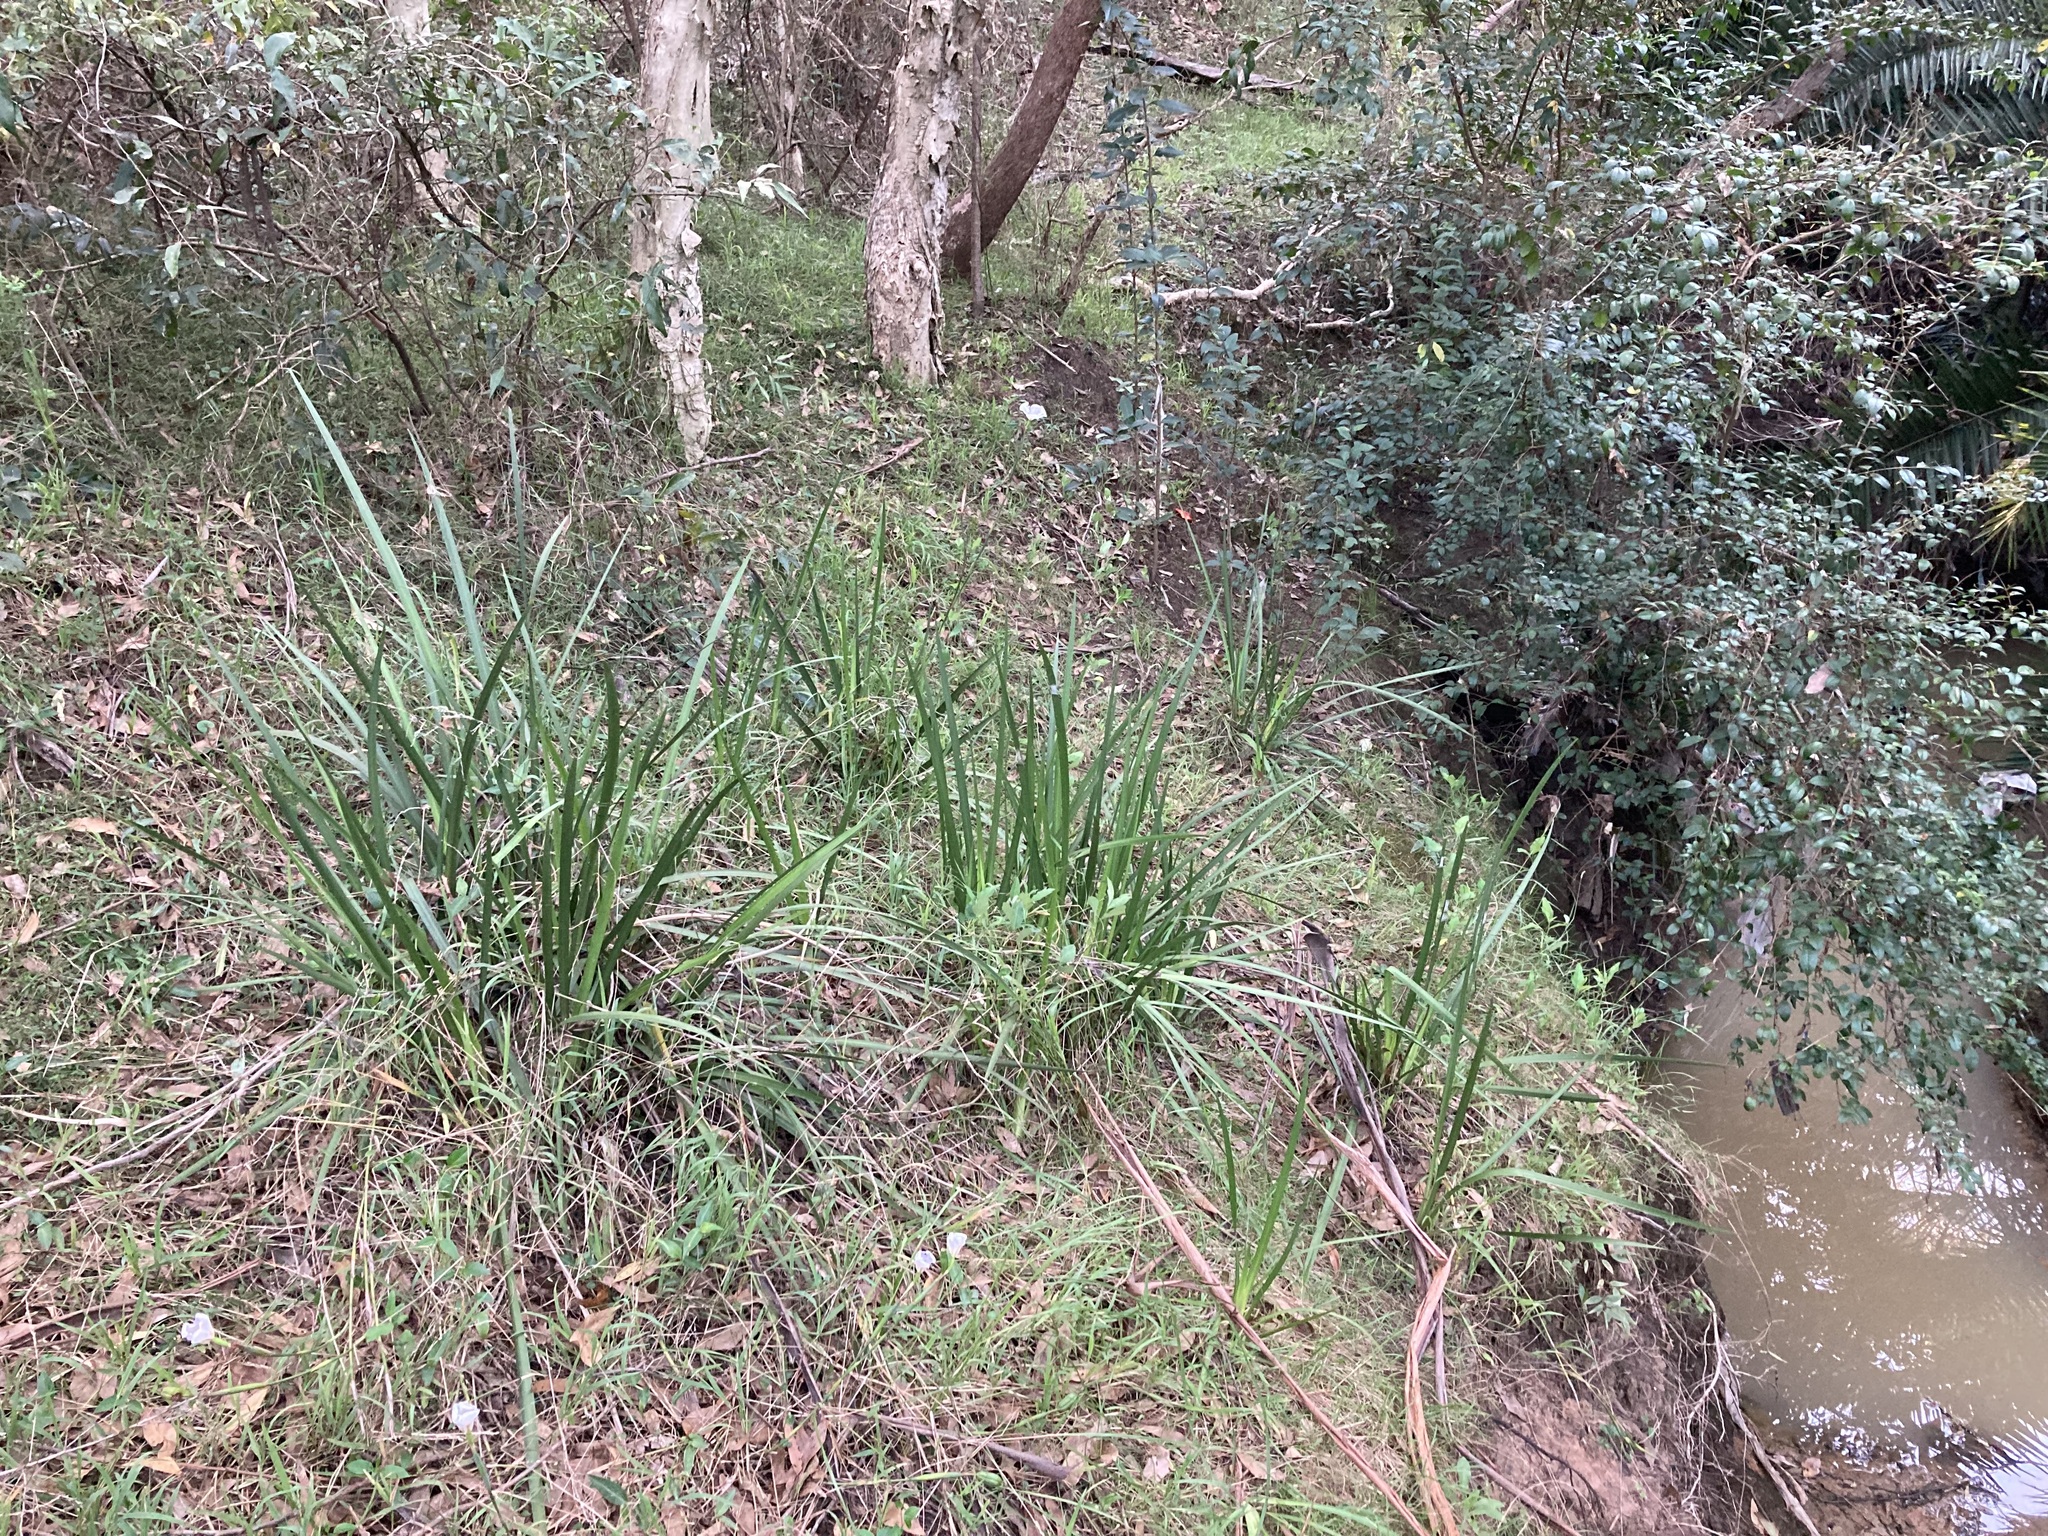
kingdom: Plantae
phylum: Tracheophyta
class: Liliopsida
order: Asparagales
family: Iridaceae
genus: Dietes
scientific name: Dietes grandiflora
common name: Wild iris
